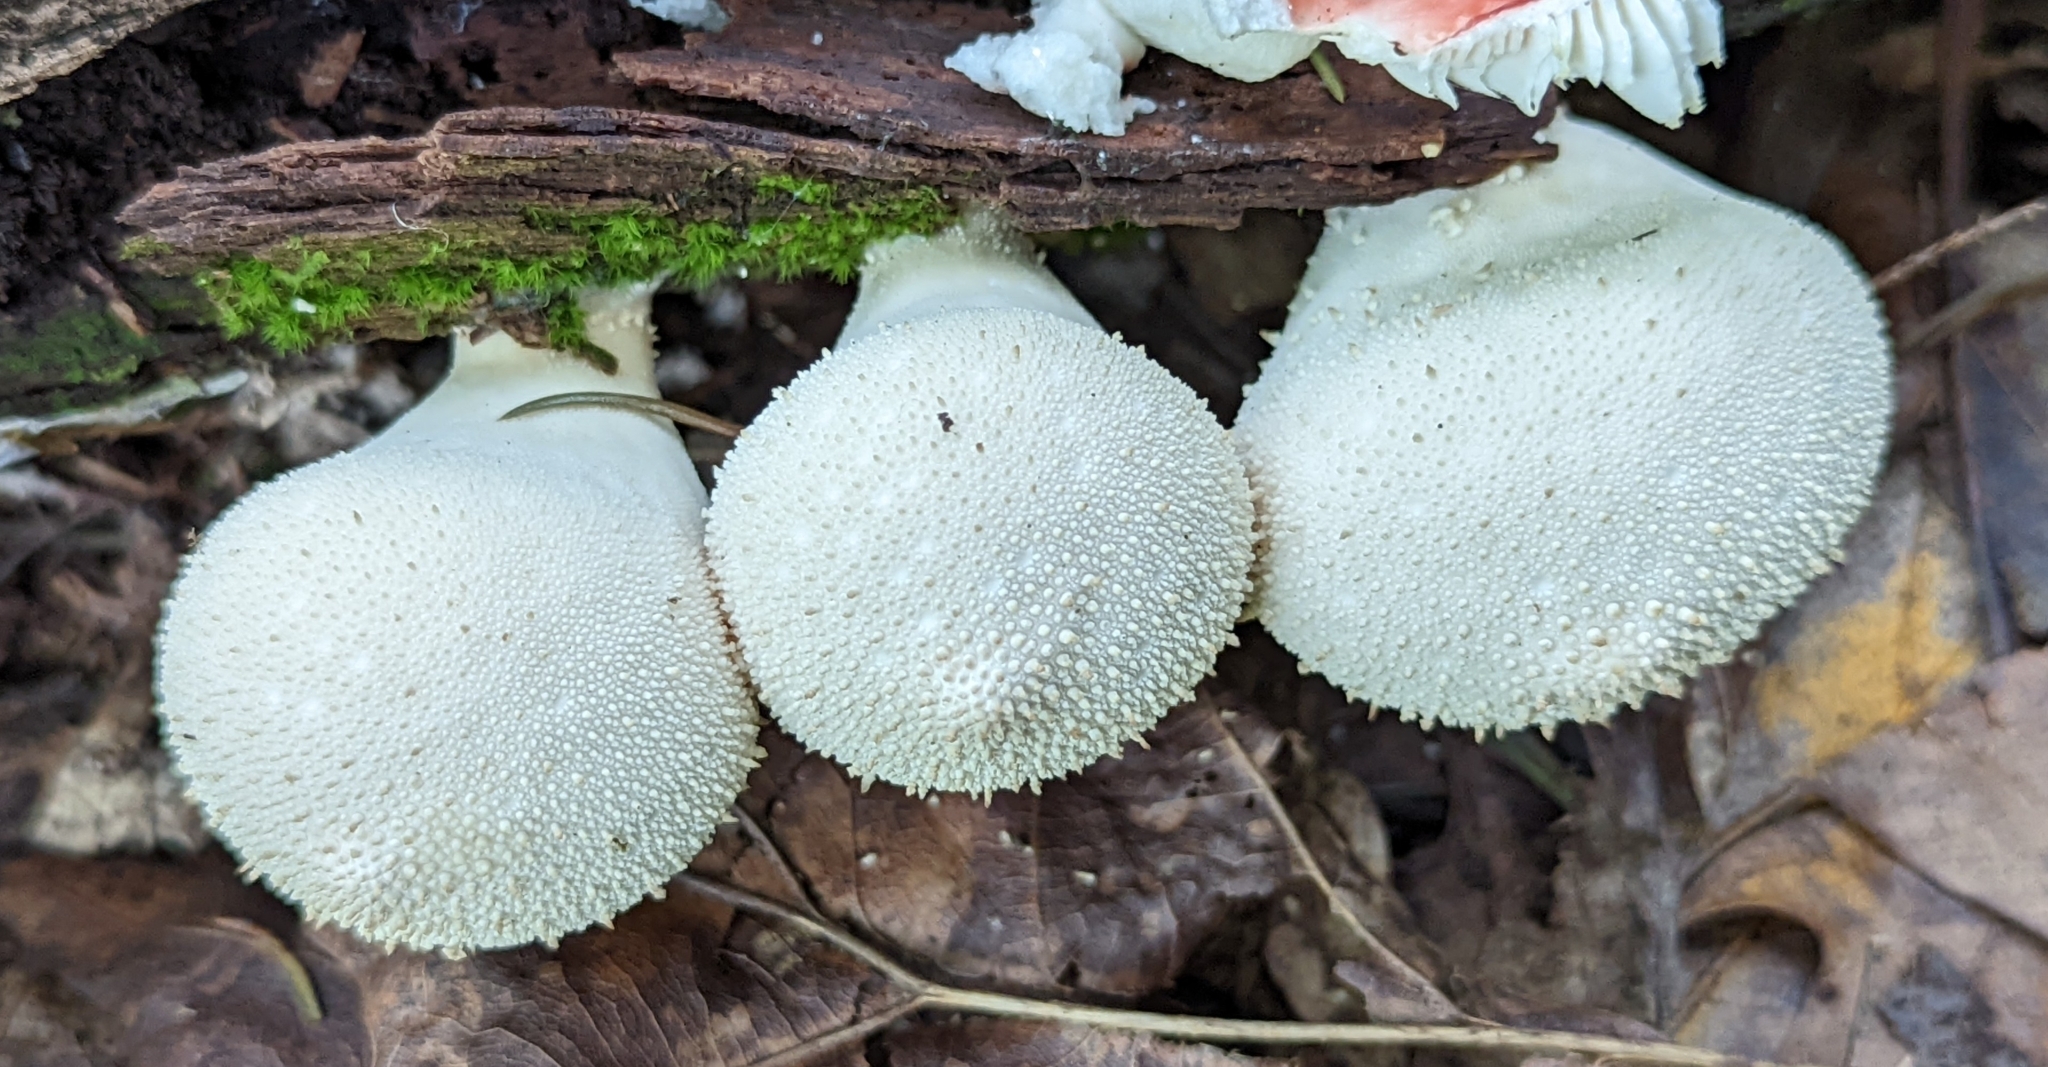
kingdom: Fungi
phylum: Basidiomycota
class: Agaricomycetes
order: Agaricales
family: Lycoperdaceae
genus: Lycoperdon
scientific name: Lycoperdon perlatum
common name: Common puffball
